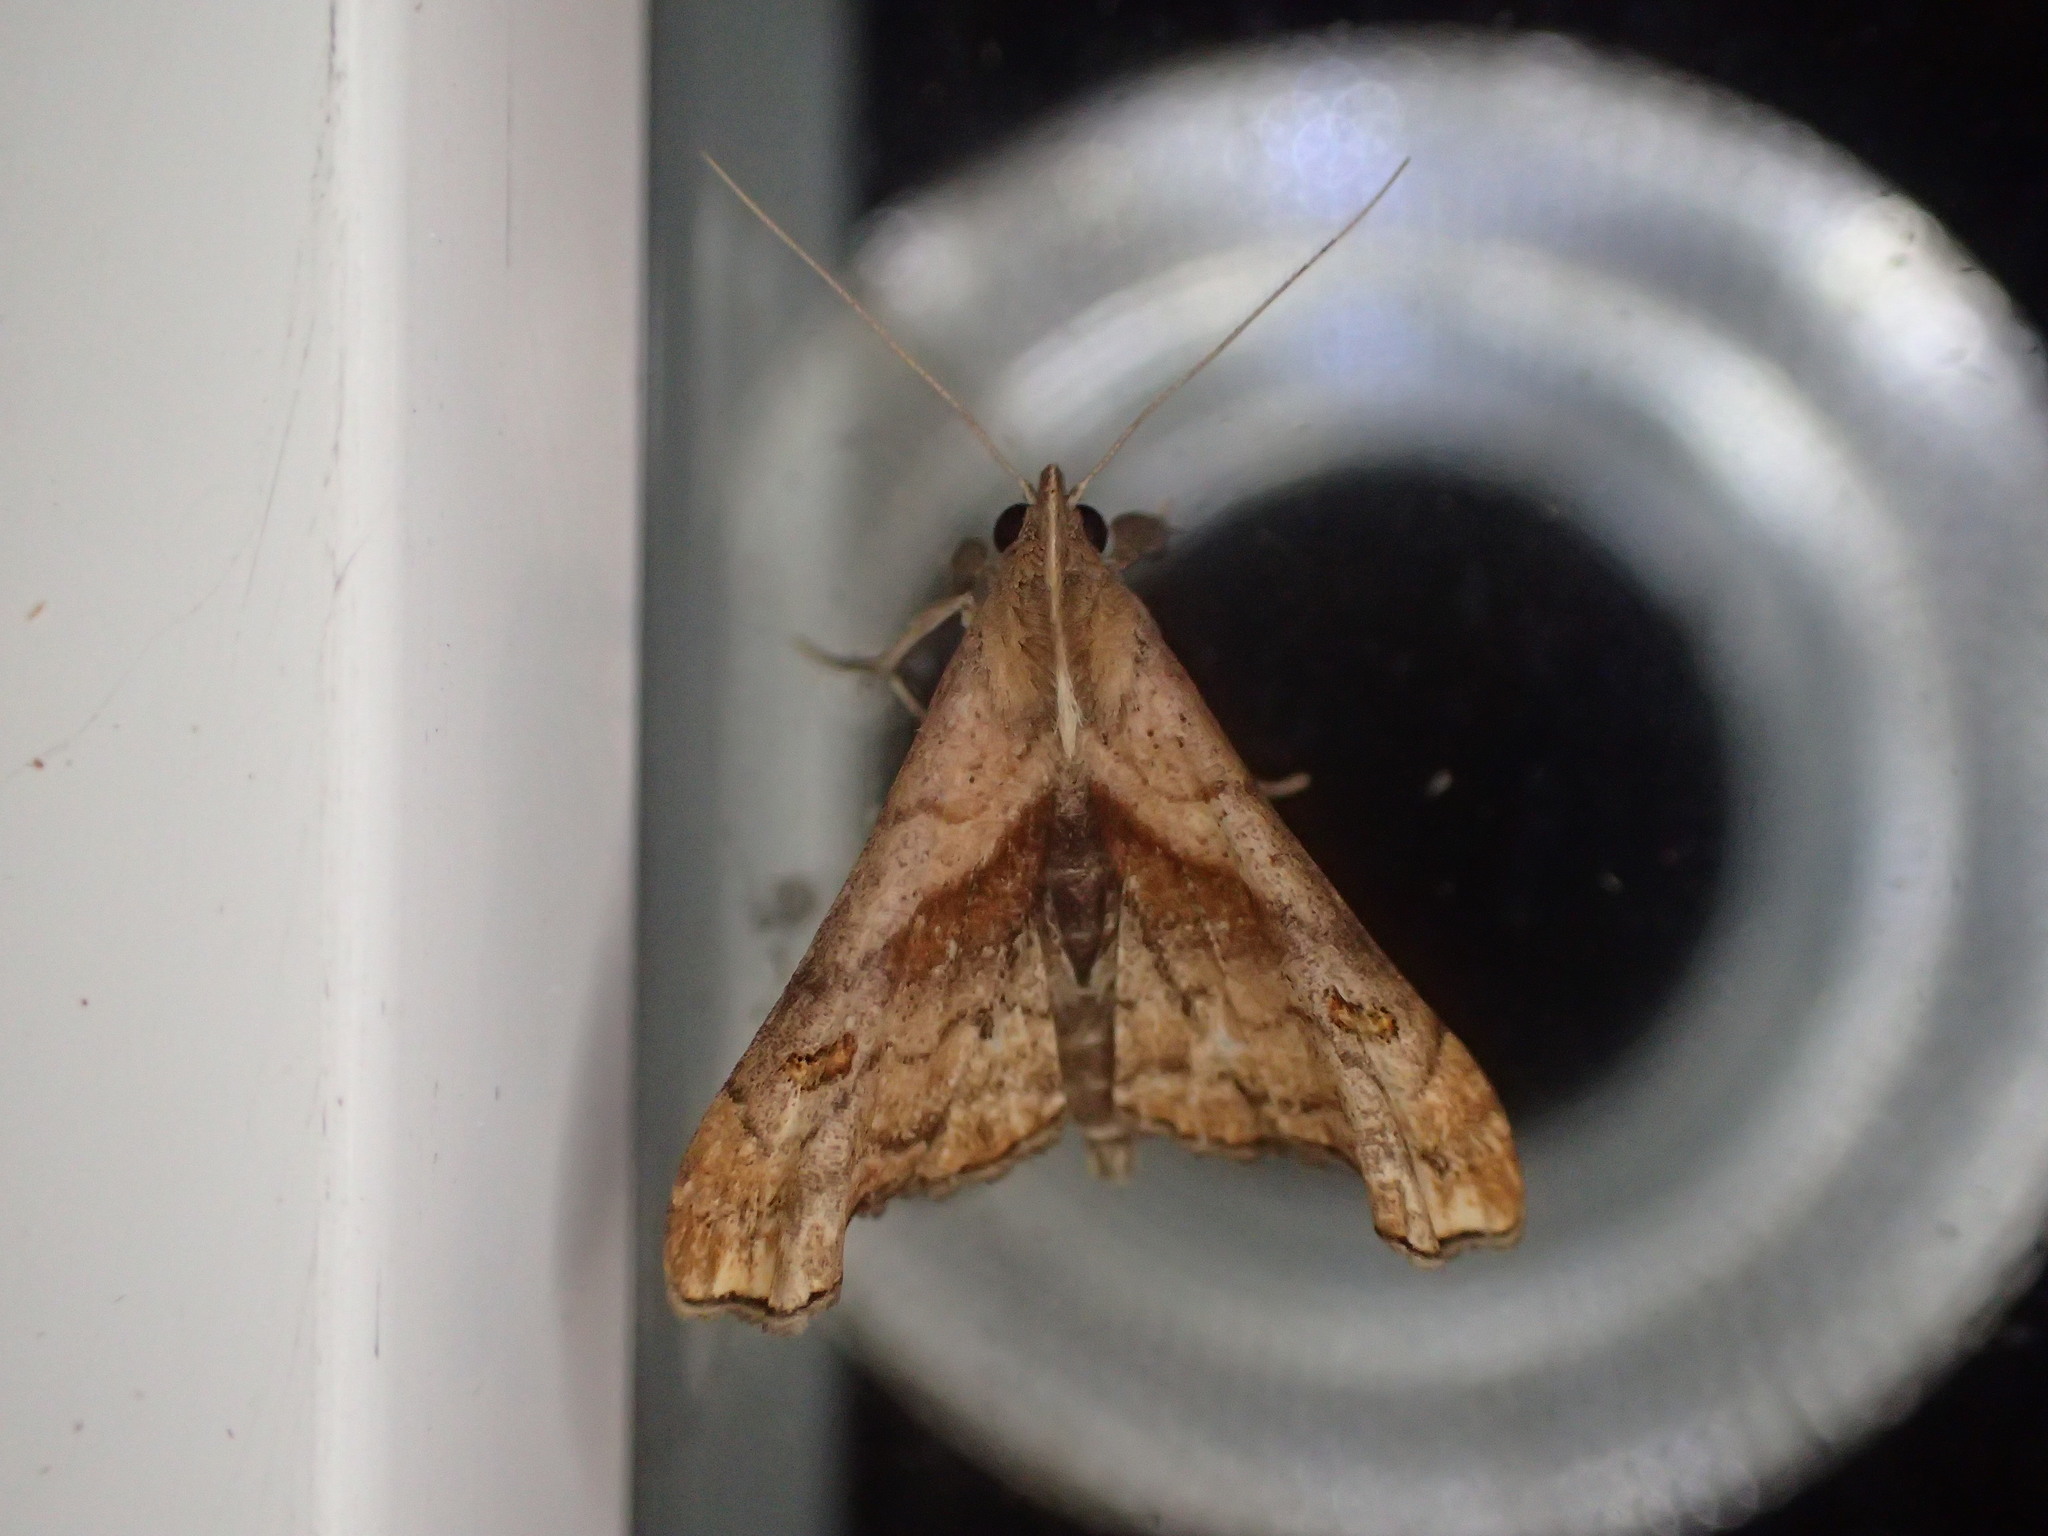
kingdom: Animalia
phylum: Arthropoda
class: Insecta
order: Lepidoptera
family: Erebidae
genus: Palthis
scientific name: Palthis angulalis
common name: Dark-spotted palthis moth
